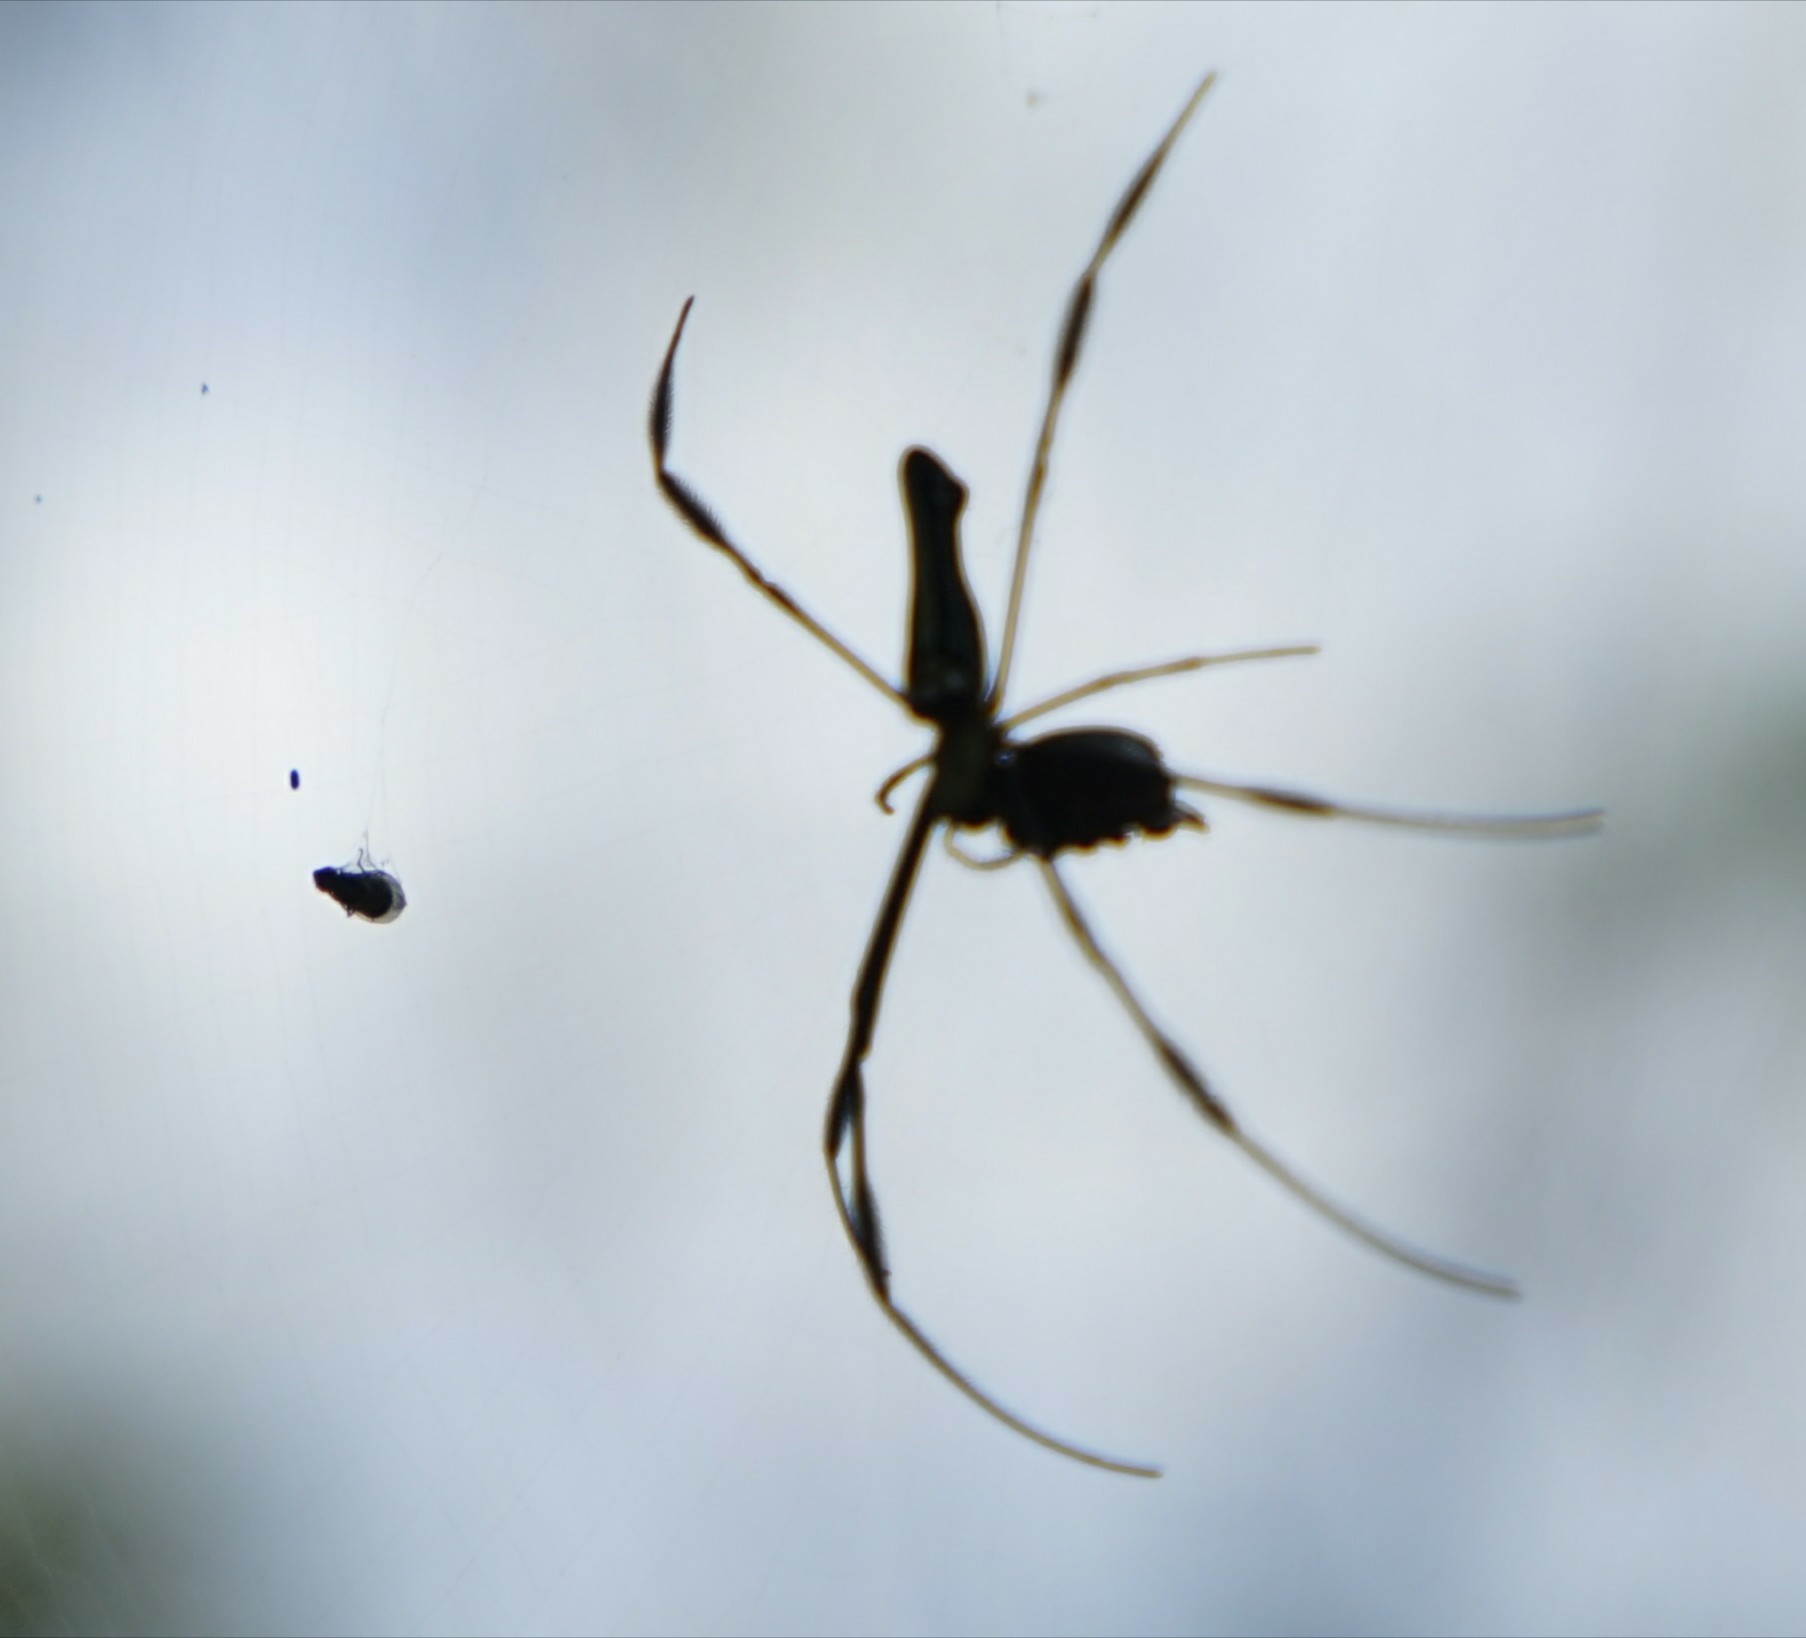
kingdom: Animalia
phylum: Arthropoda
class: Arachnida
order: Araneae
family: Araneidae
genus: Nephila
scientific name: Nephila pilipes
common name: Giant golden orb weaver
